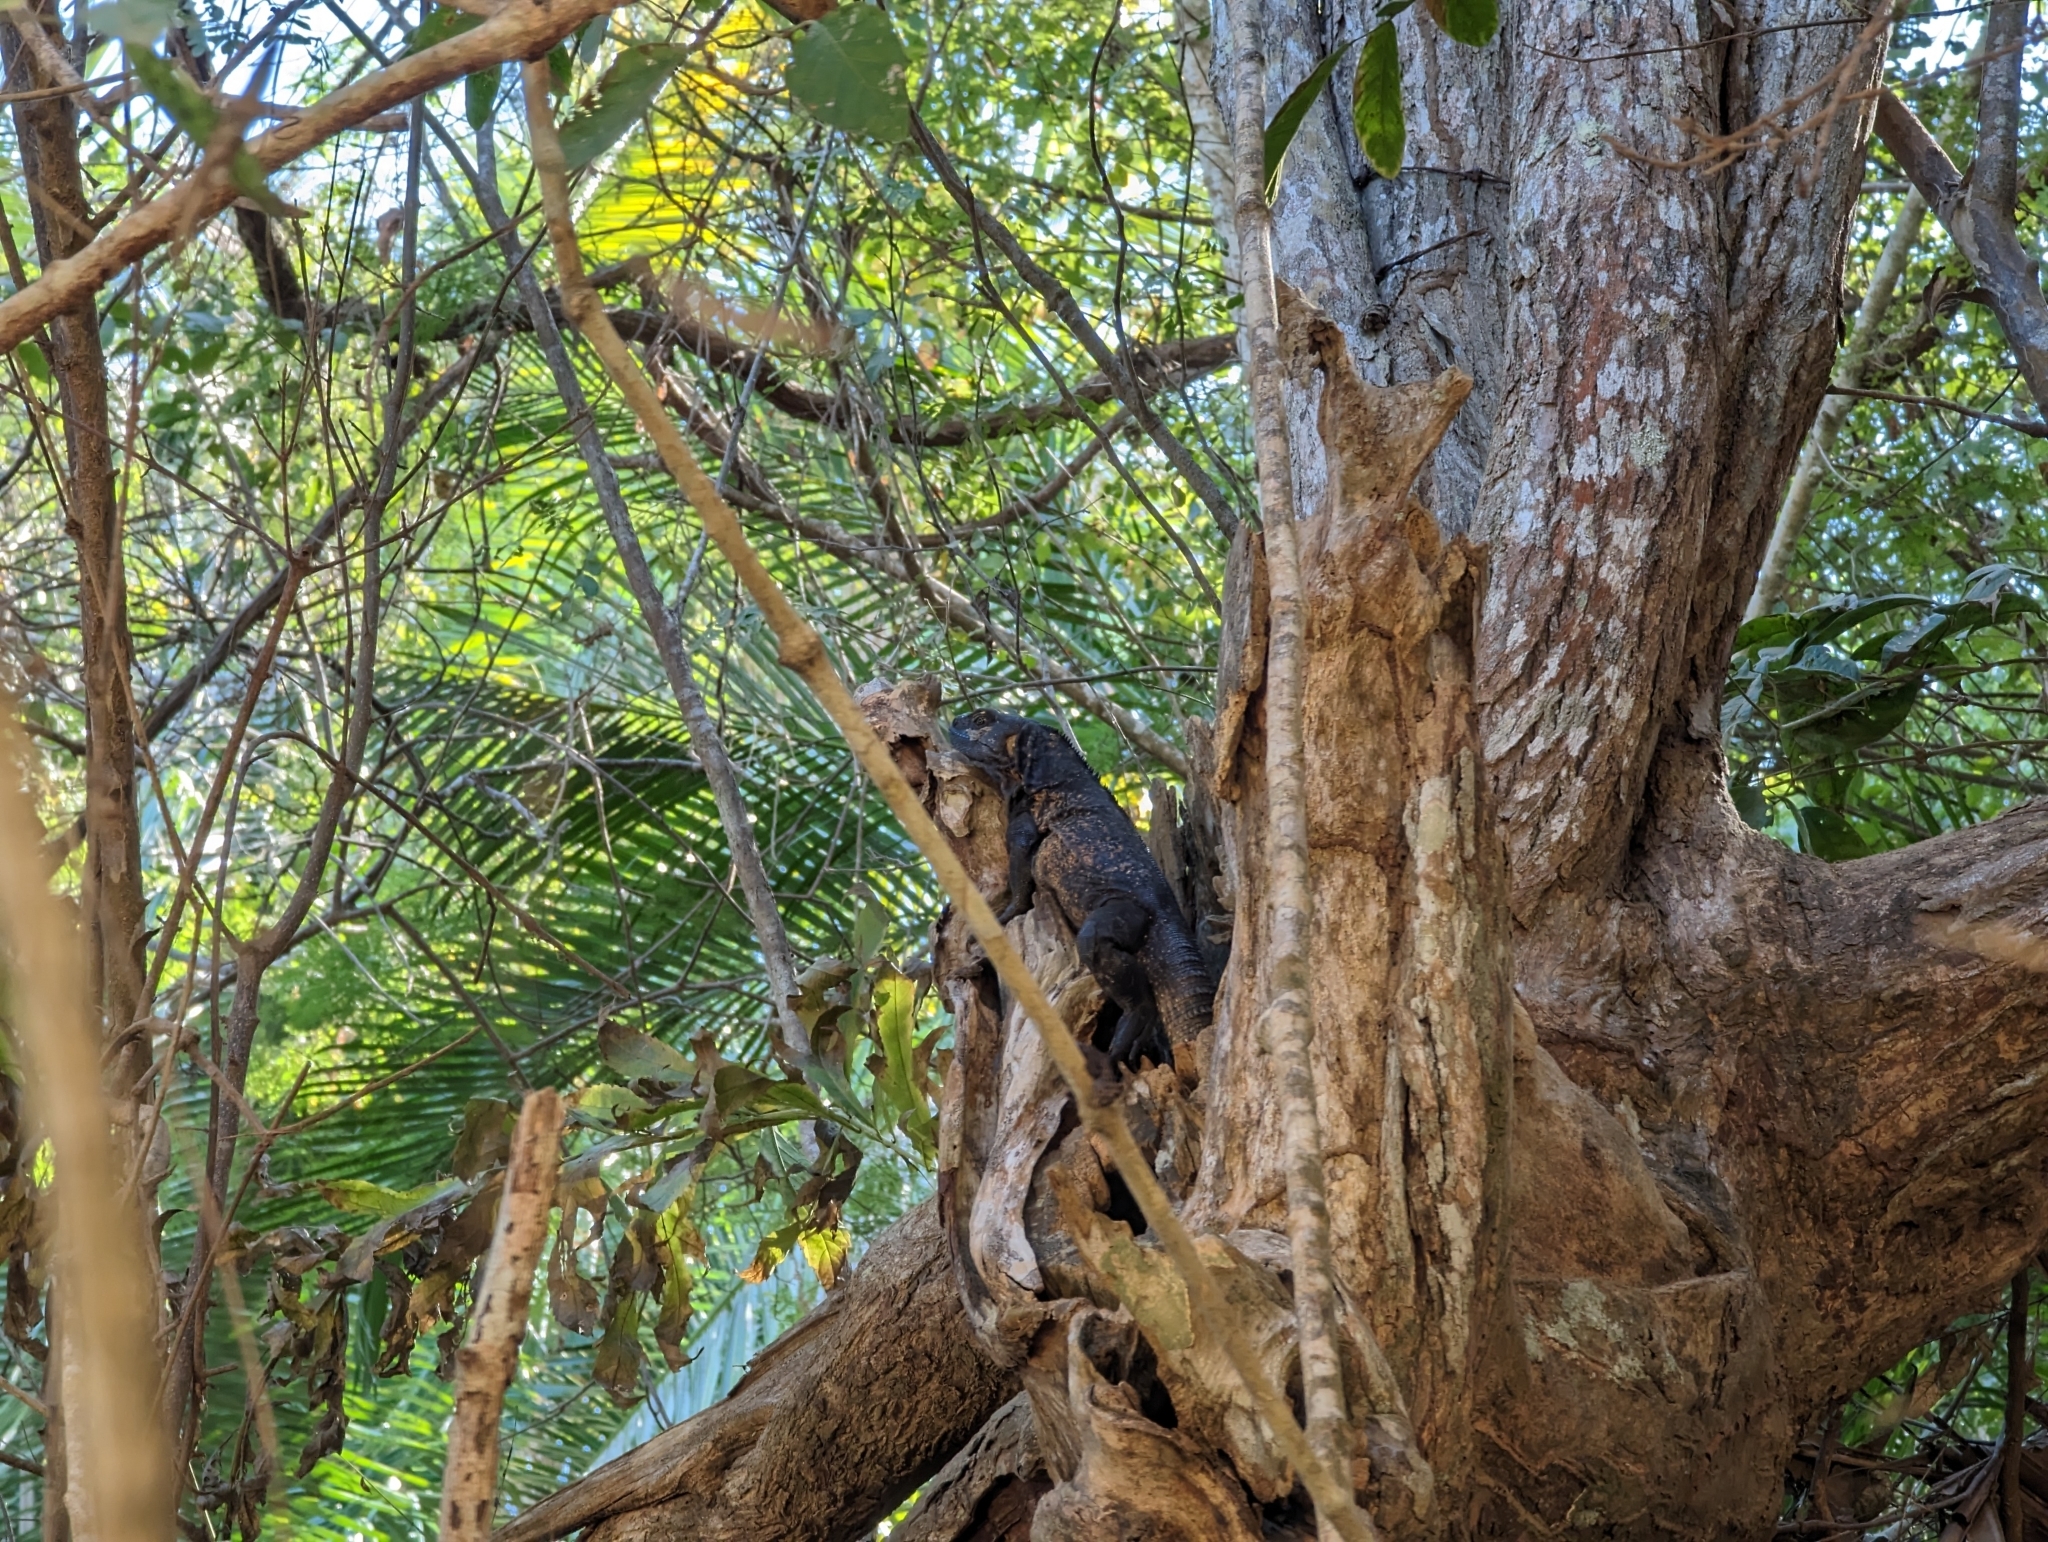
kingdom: Animalia
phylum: Chordata
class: Squamata
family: Iguanidae
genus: Ctenosaura
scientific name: Ctenosaura pectinata
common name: Guerreran spiny-tailed iguana
